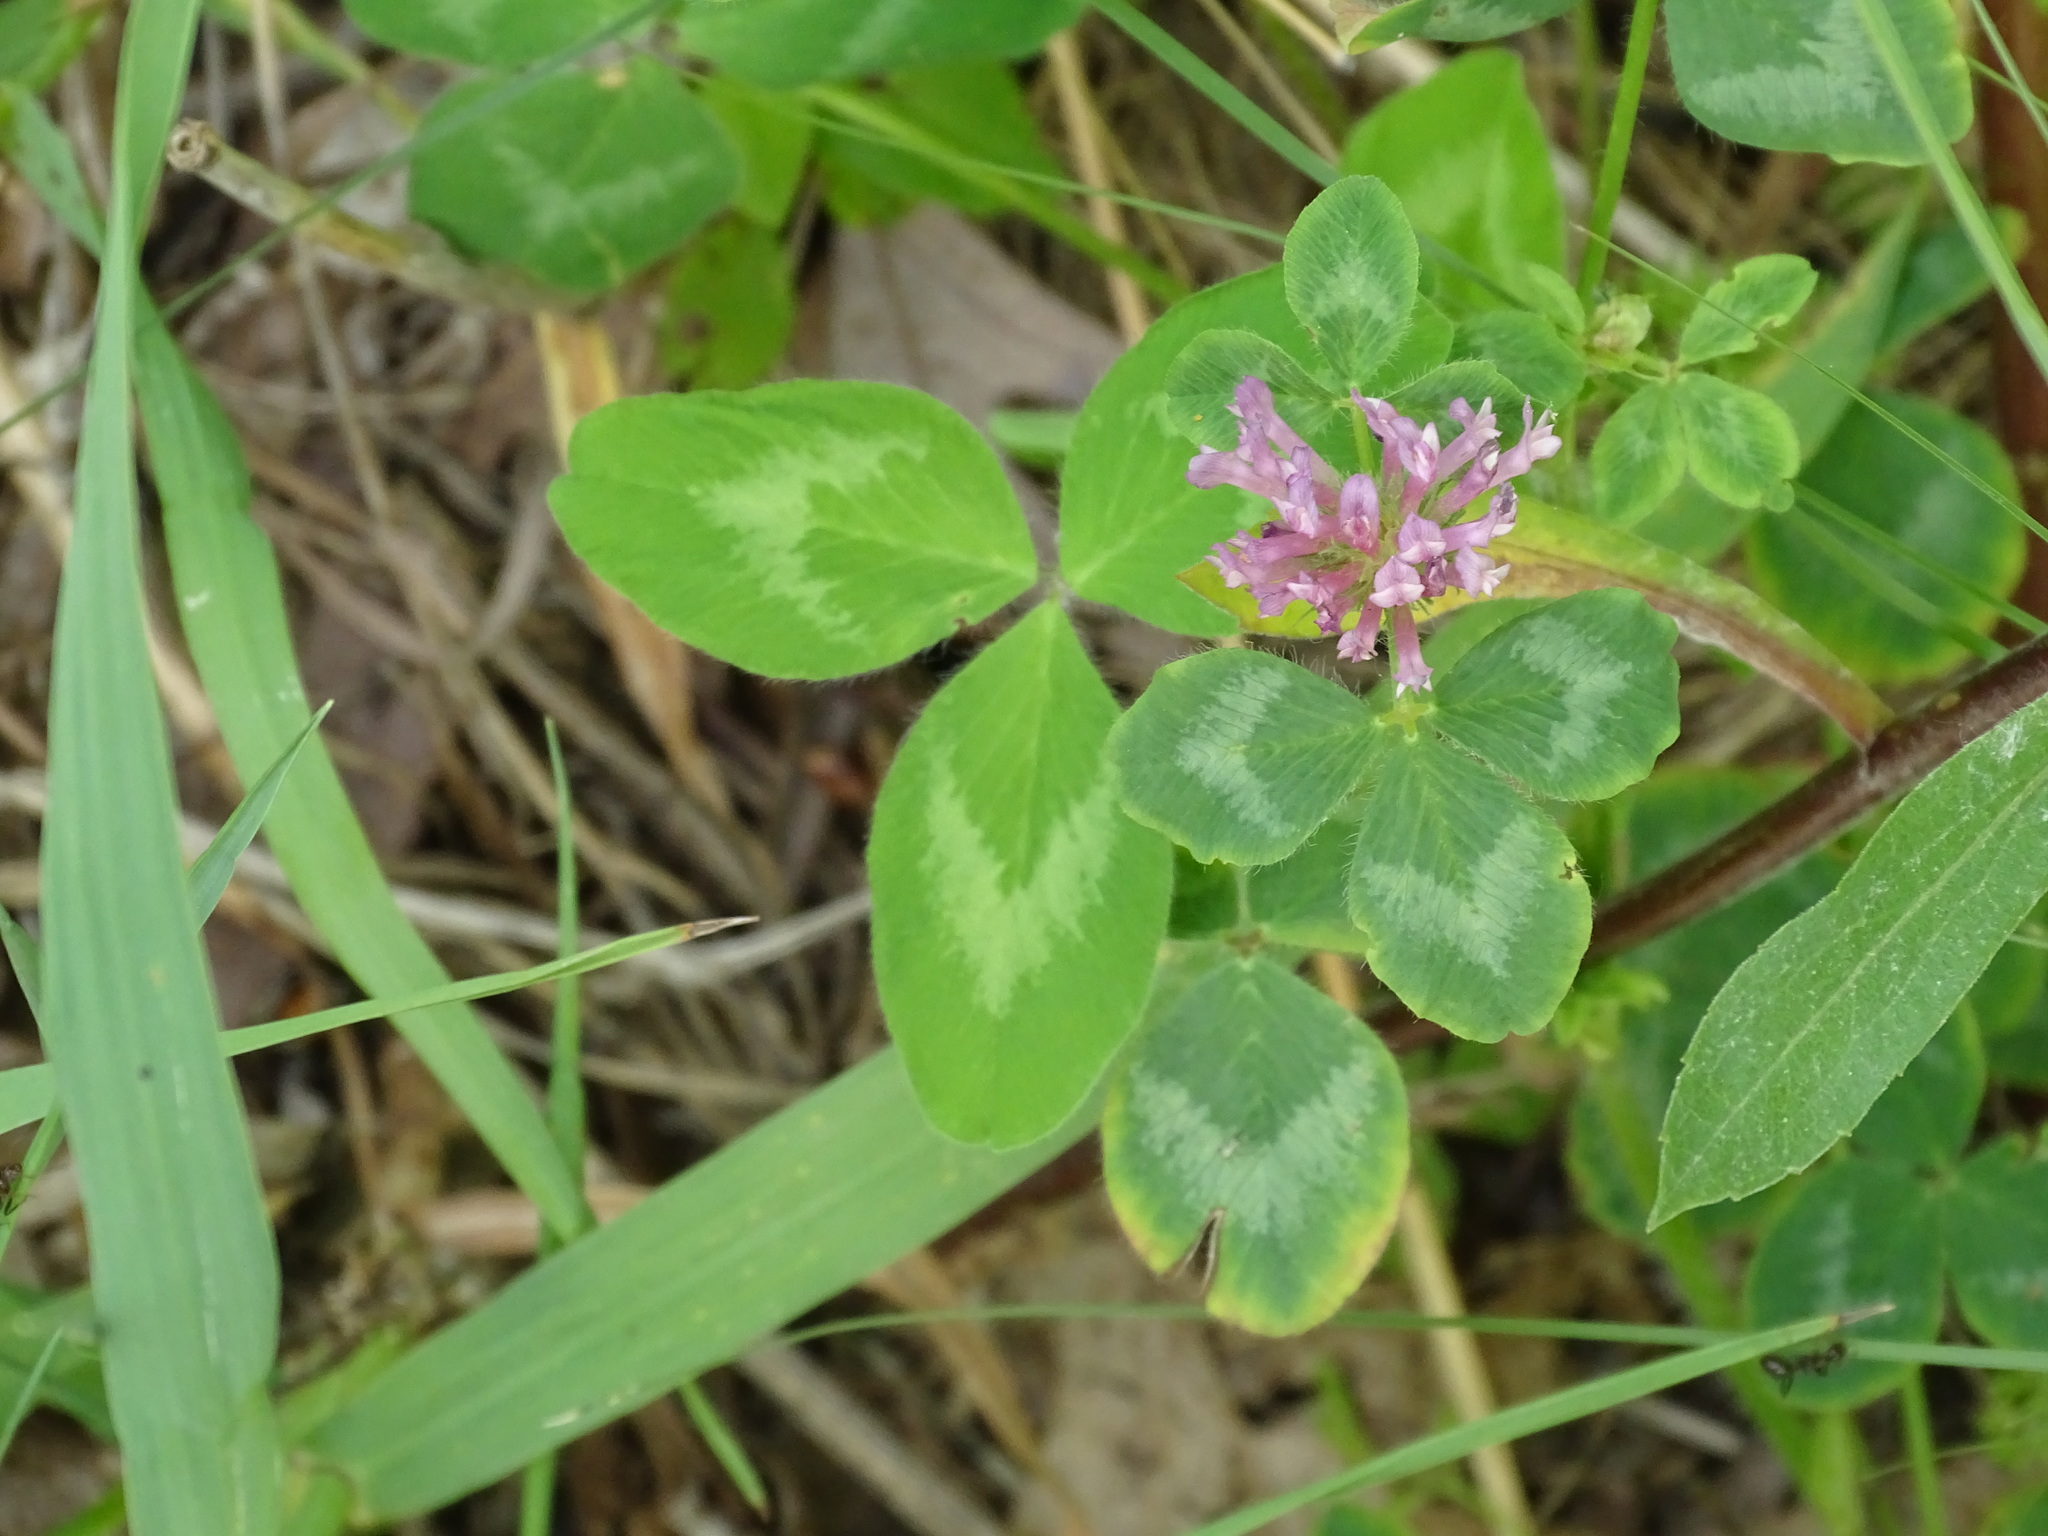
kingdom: Plantae
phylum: Tracheophyta
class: Magnoliopsida
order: Fabales
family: Fabaceae
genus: Trifolium
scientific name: Trifolium pratense
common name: Red clover
